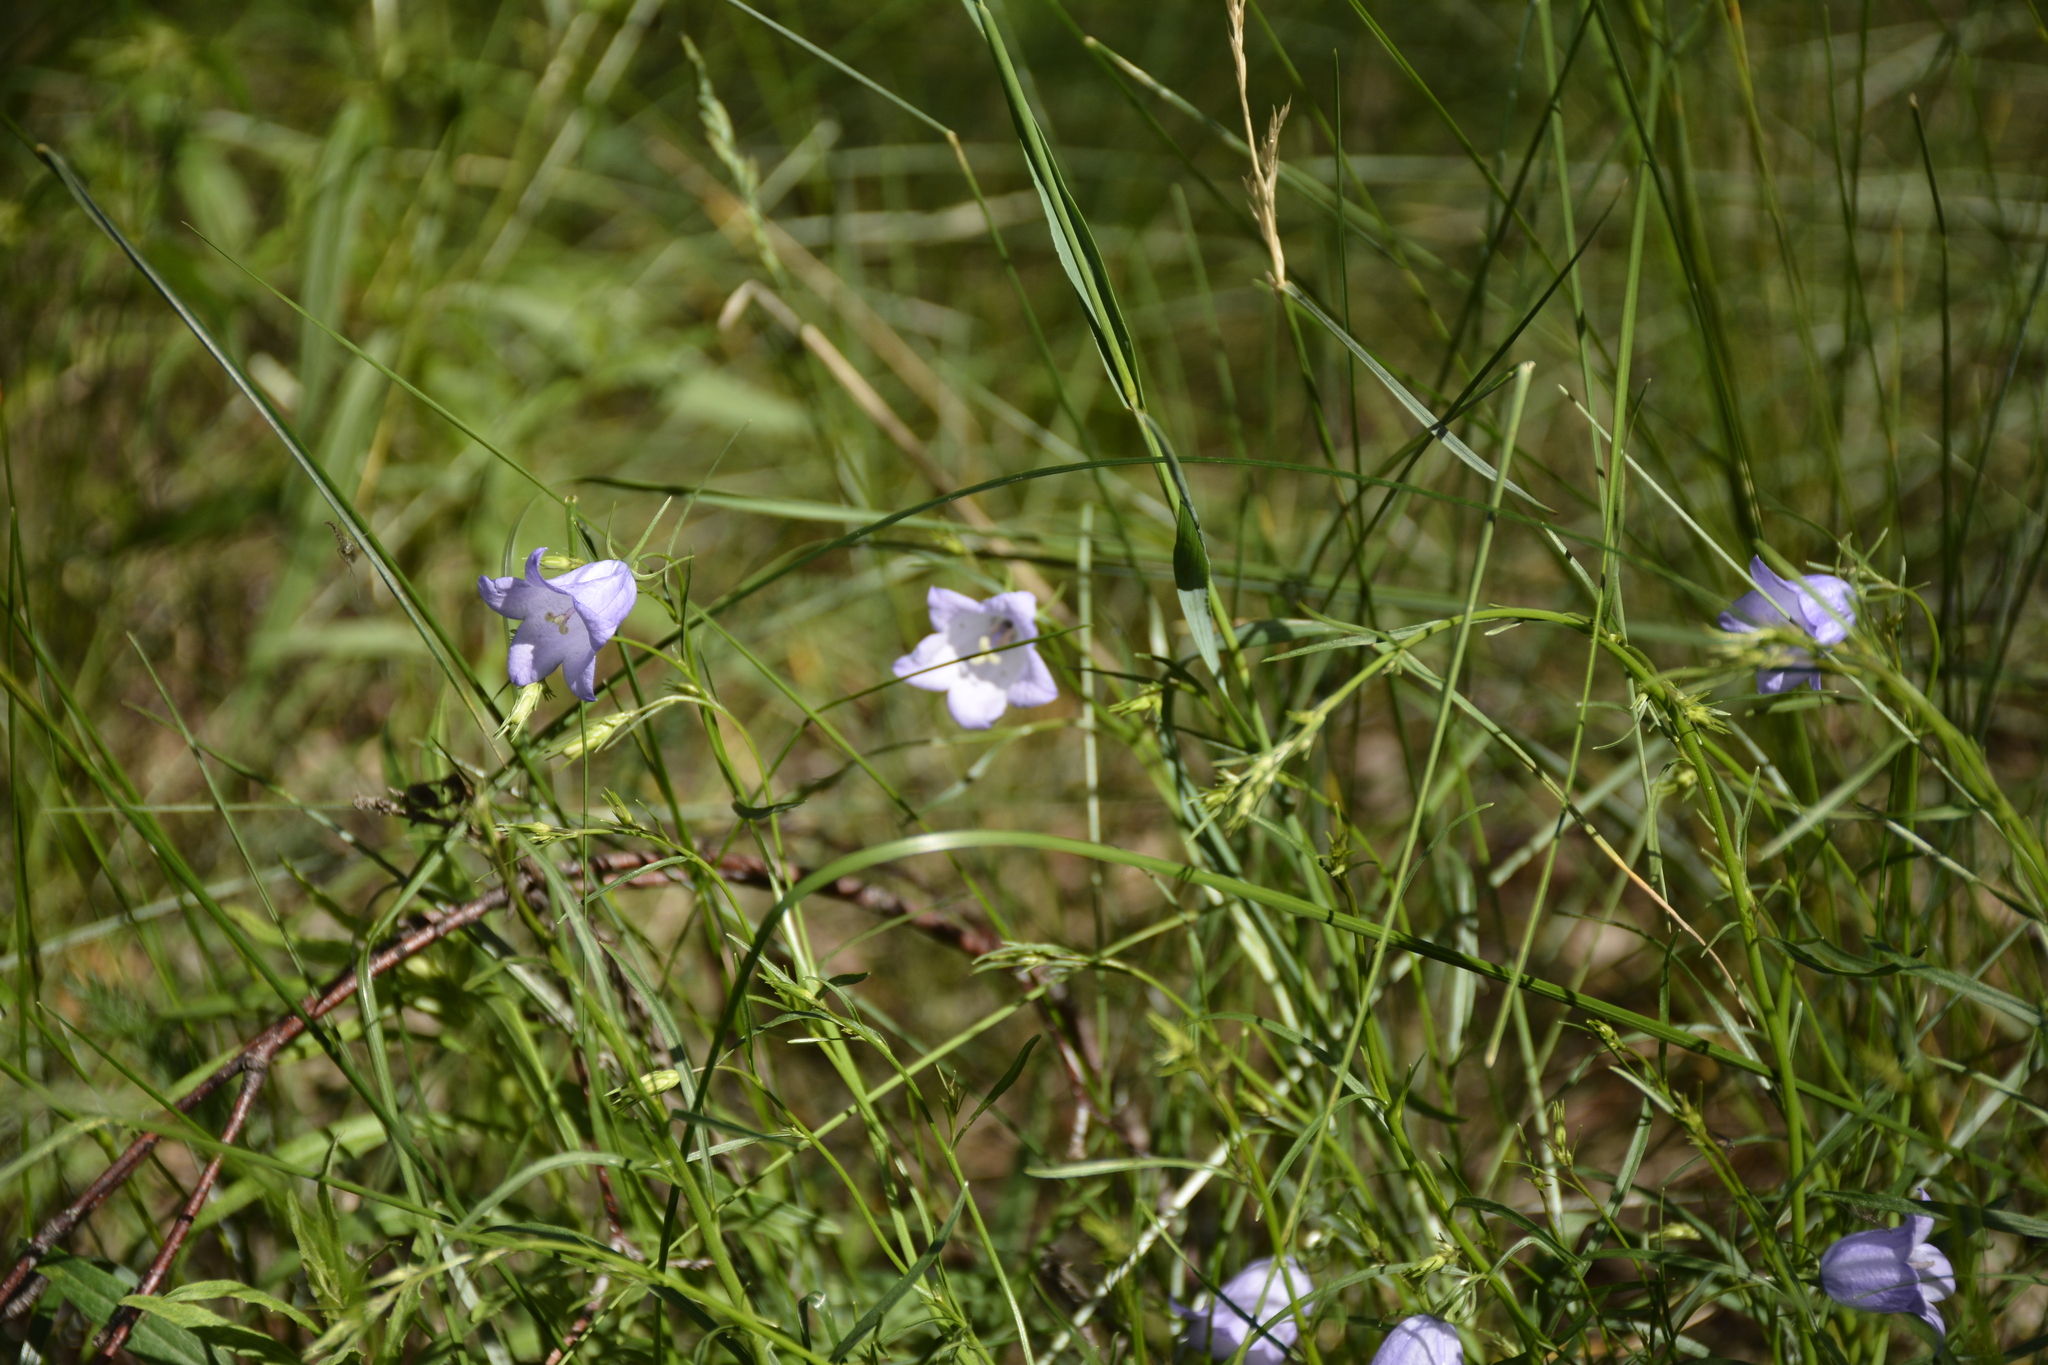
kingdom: Plantae
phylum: Tracheophyta
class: Magnoliopsida
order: Asterales
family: Campanulaceae
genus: Campanula
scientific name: Campanula rotundifolia
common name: Harebell
